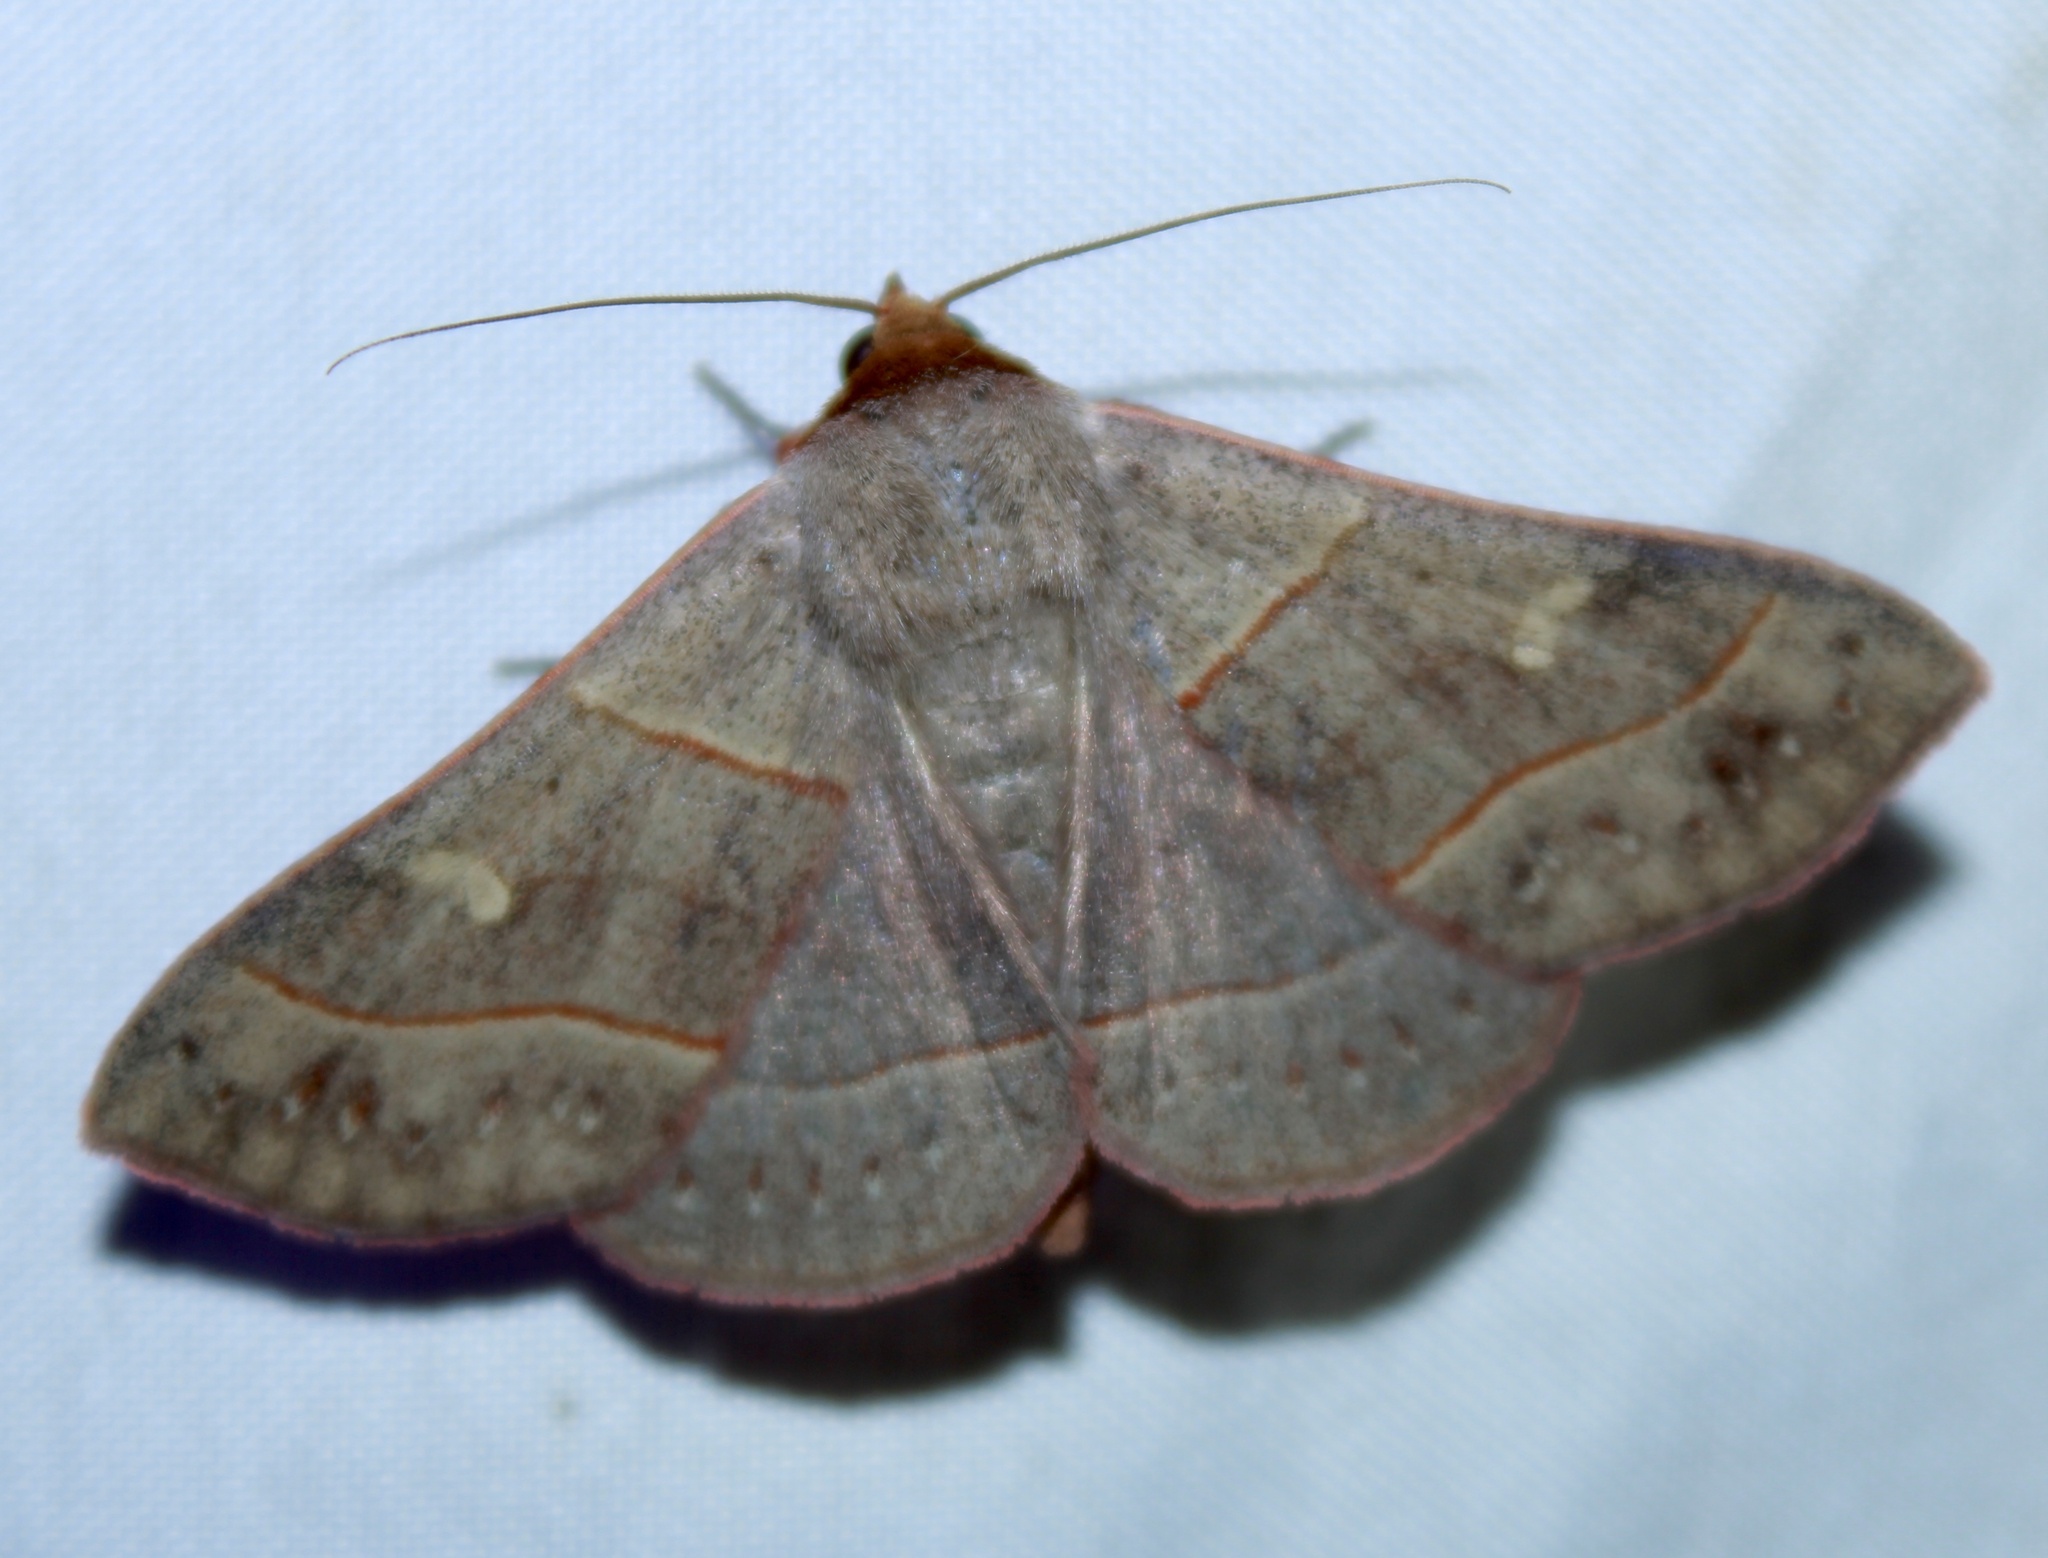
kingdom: Animalia
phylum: Arthropoda
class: Insecta
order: Lepidoptera
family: Erebidae
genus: Panopoda
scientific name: Panopoda rufimargo
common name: Red-lined panopoda moth
